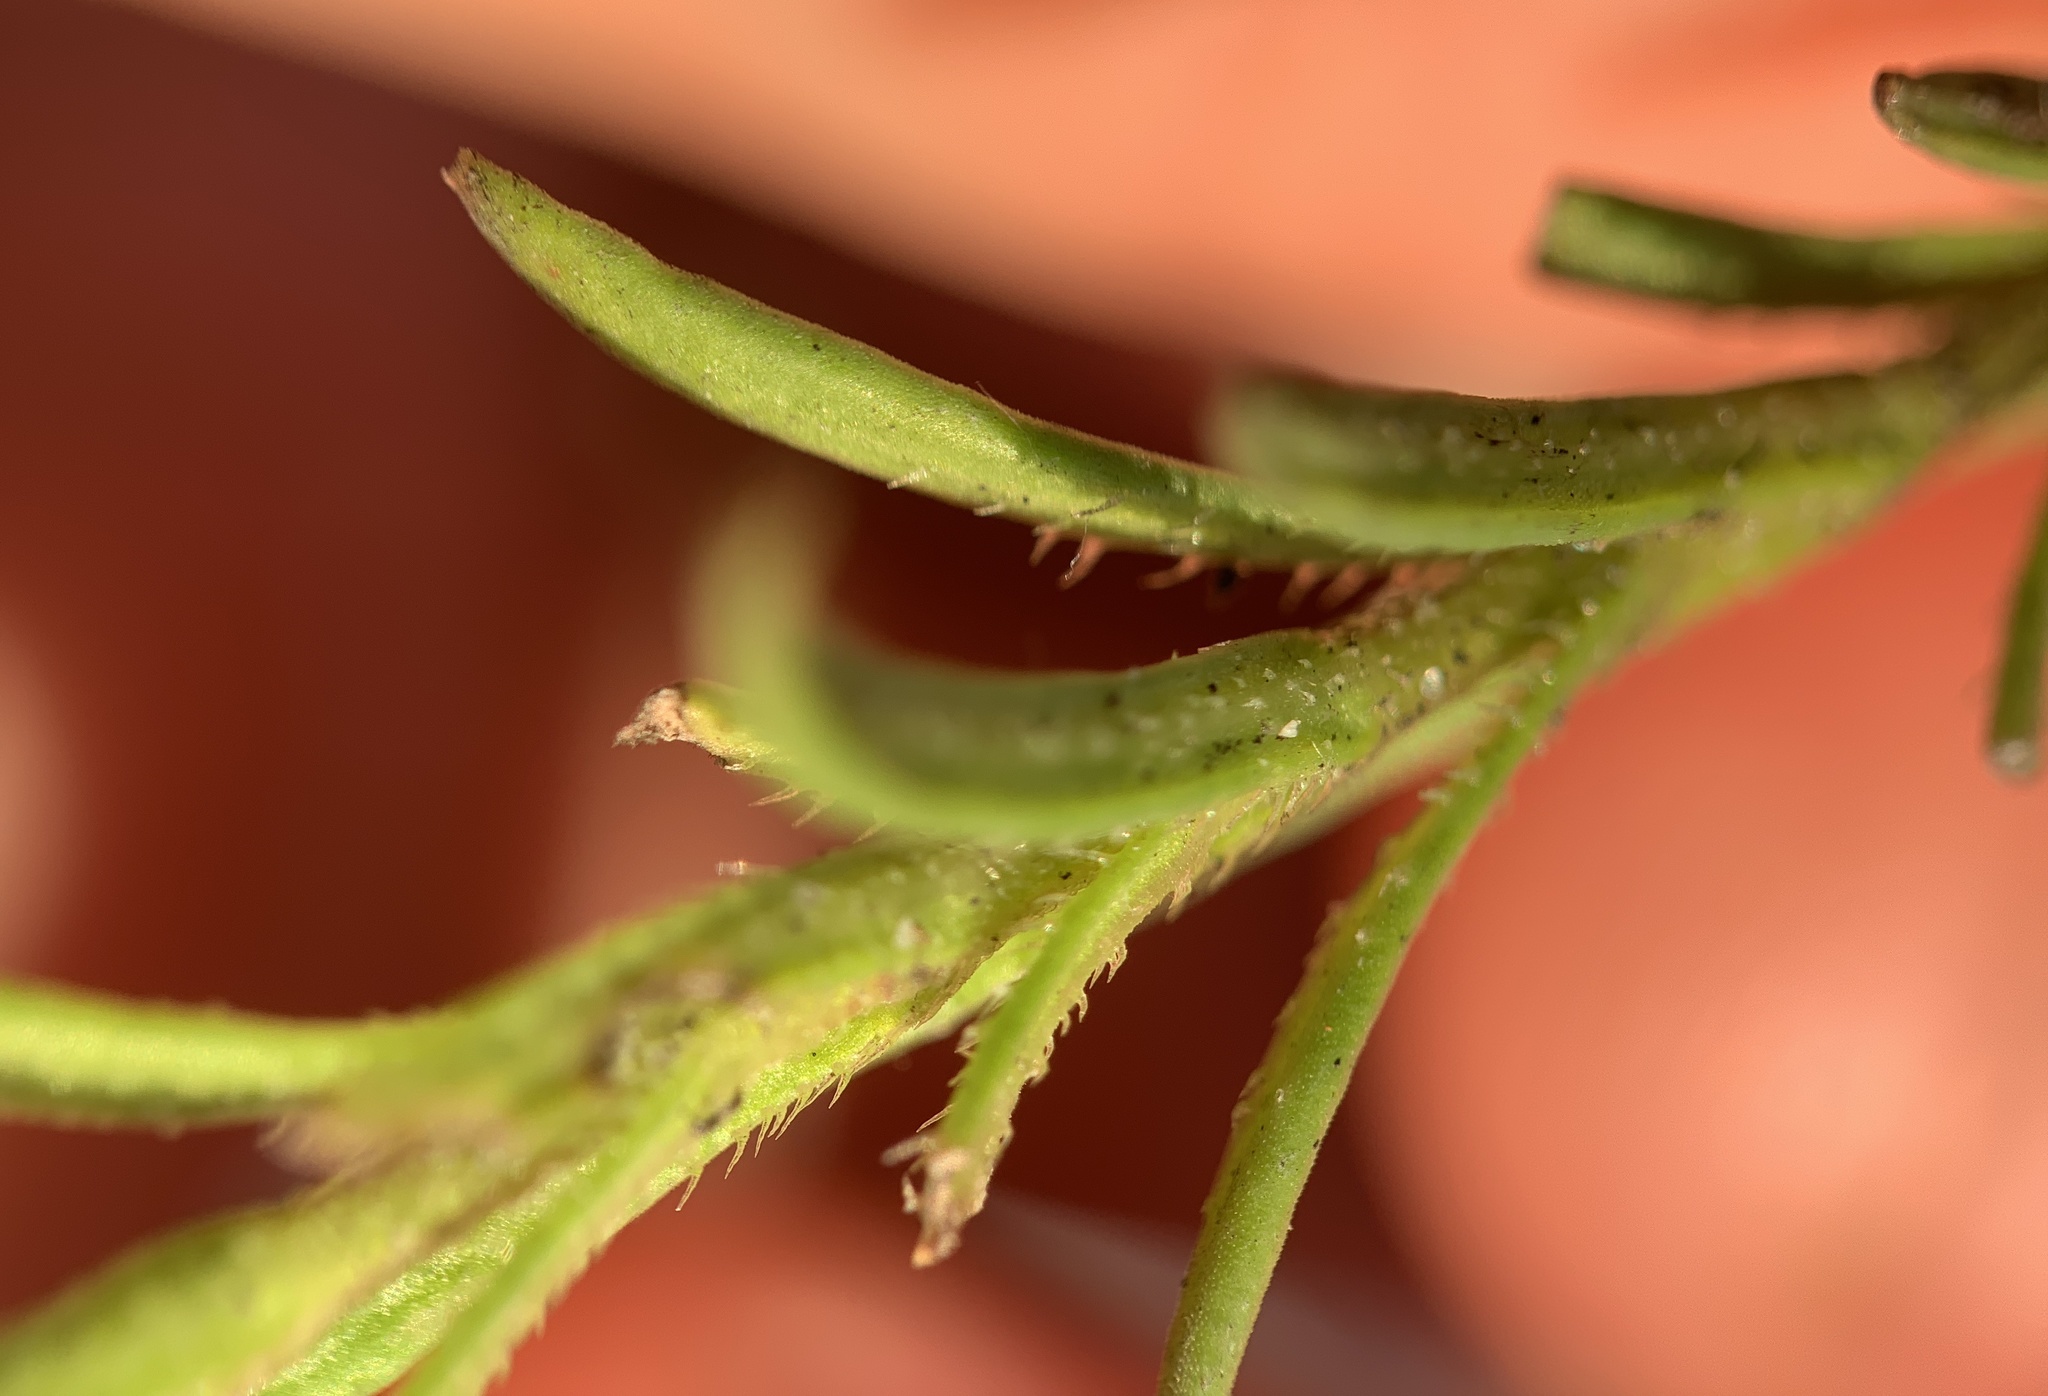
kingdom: Plantae
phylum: Tracheophyta
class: Magnoliopsida
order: Lamiales
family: Plantaginaceae
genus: Gratiola
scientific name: Gratiola hispida
